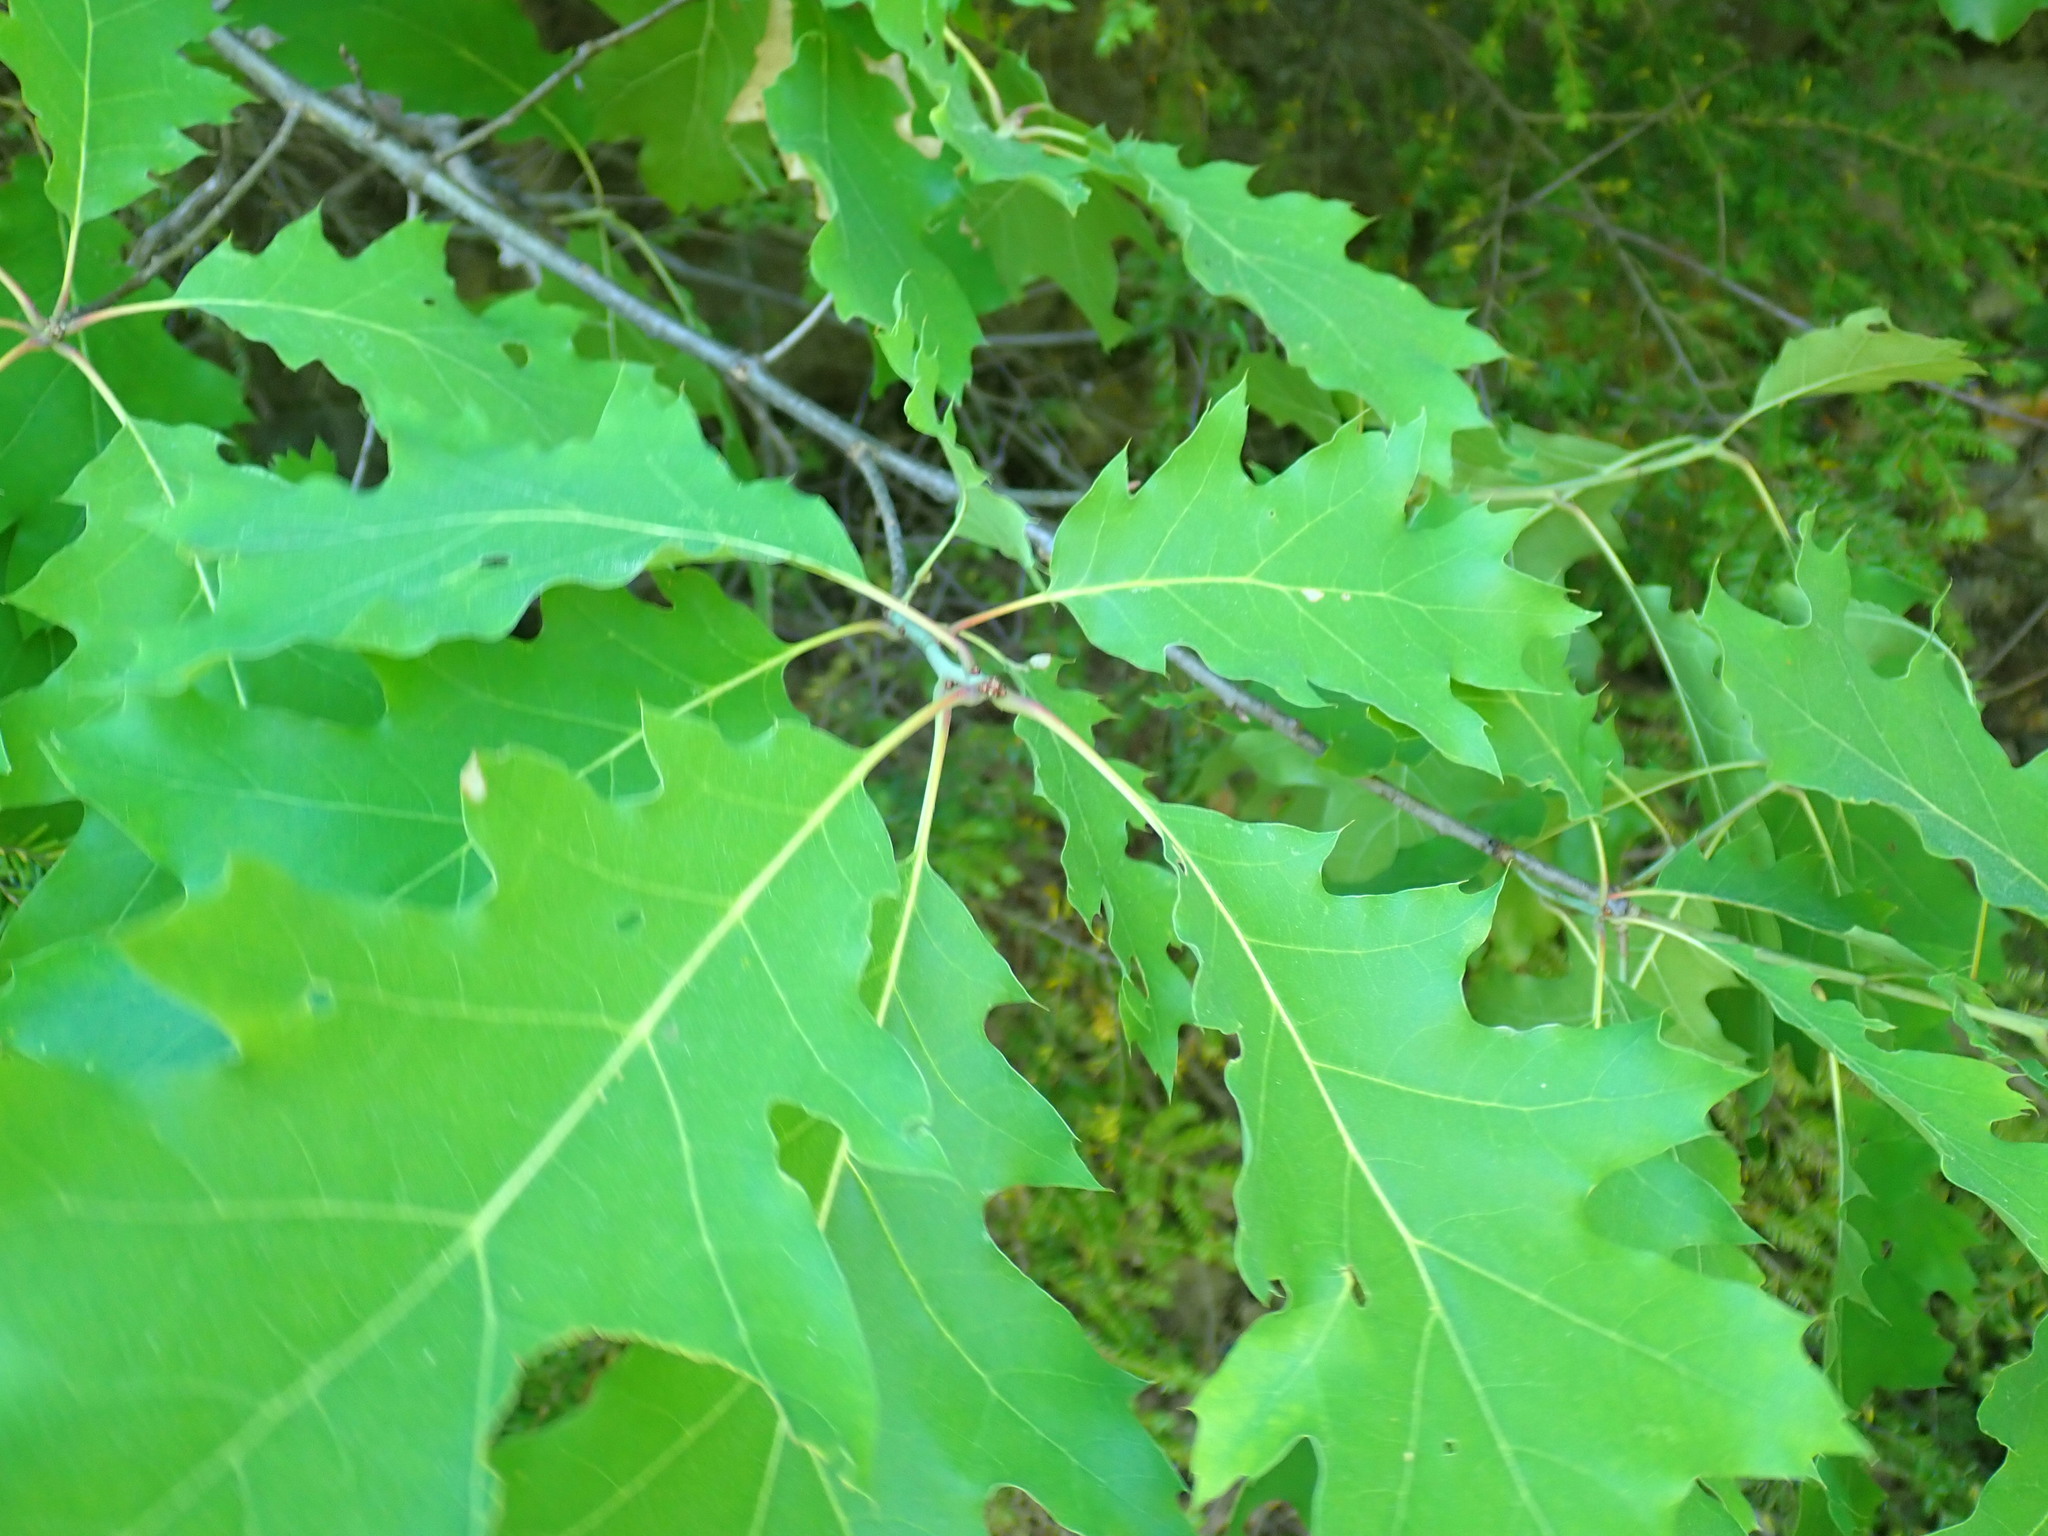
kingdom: Plantae
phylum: Tracheophyta
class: Magnoliopsida
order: Fagales
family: Fagaceae
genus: Quercus
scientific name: Quercus rubra
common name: Red oak
